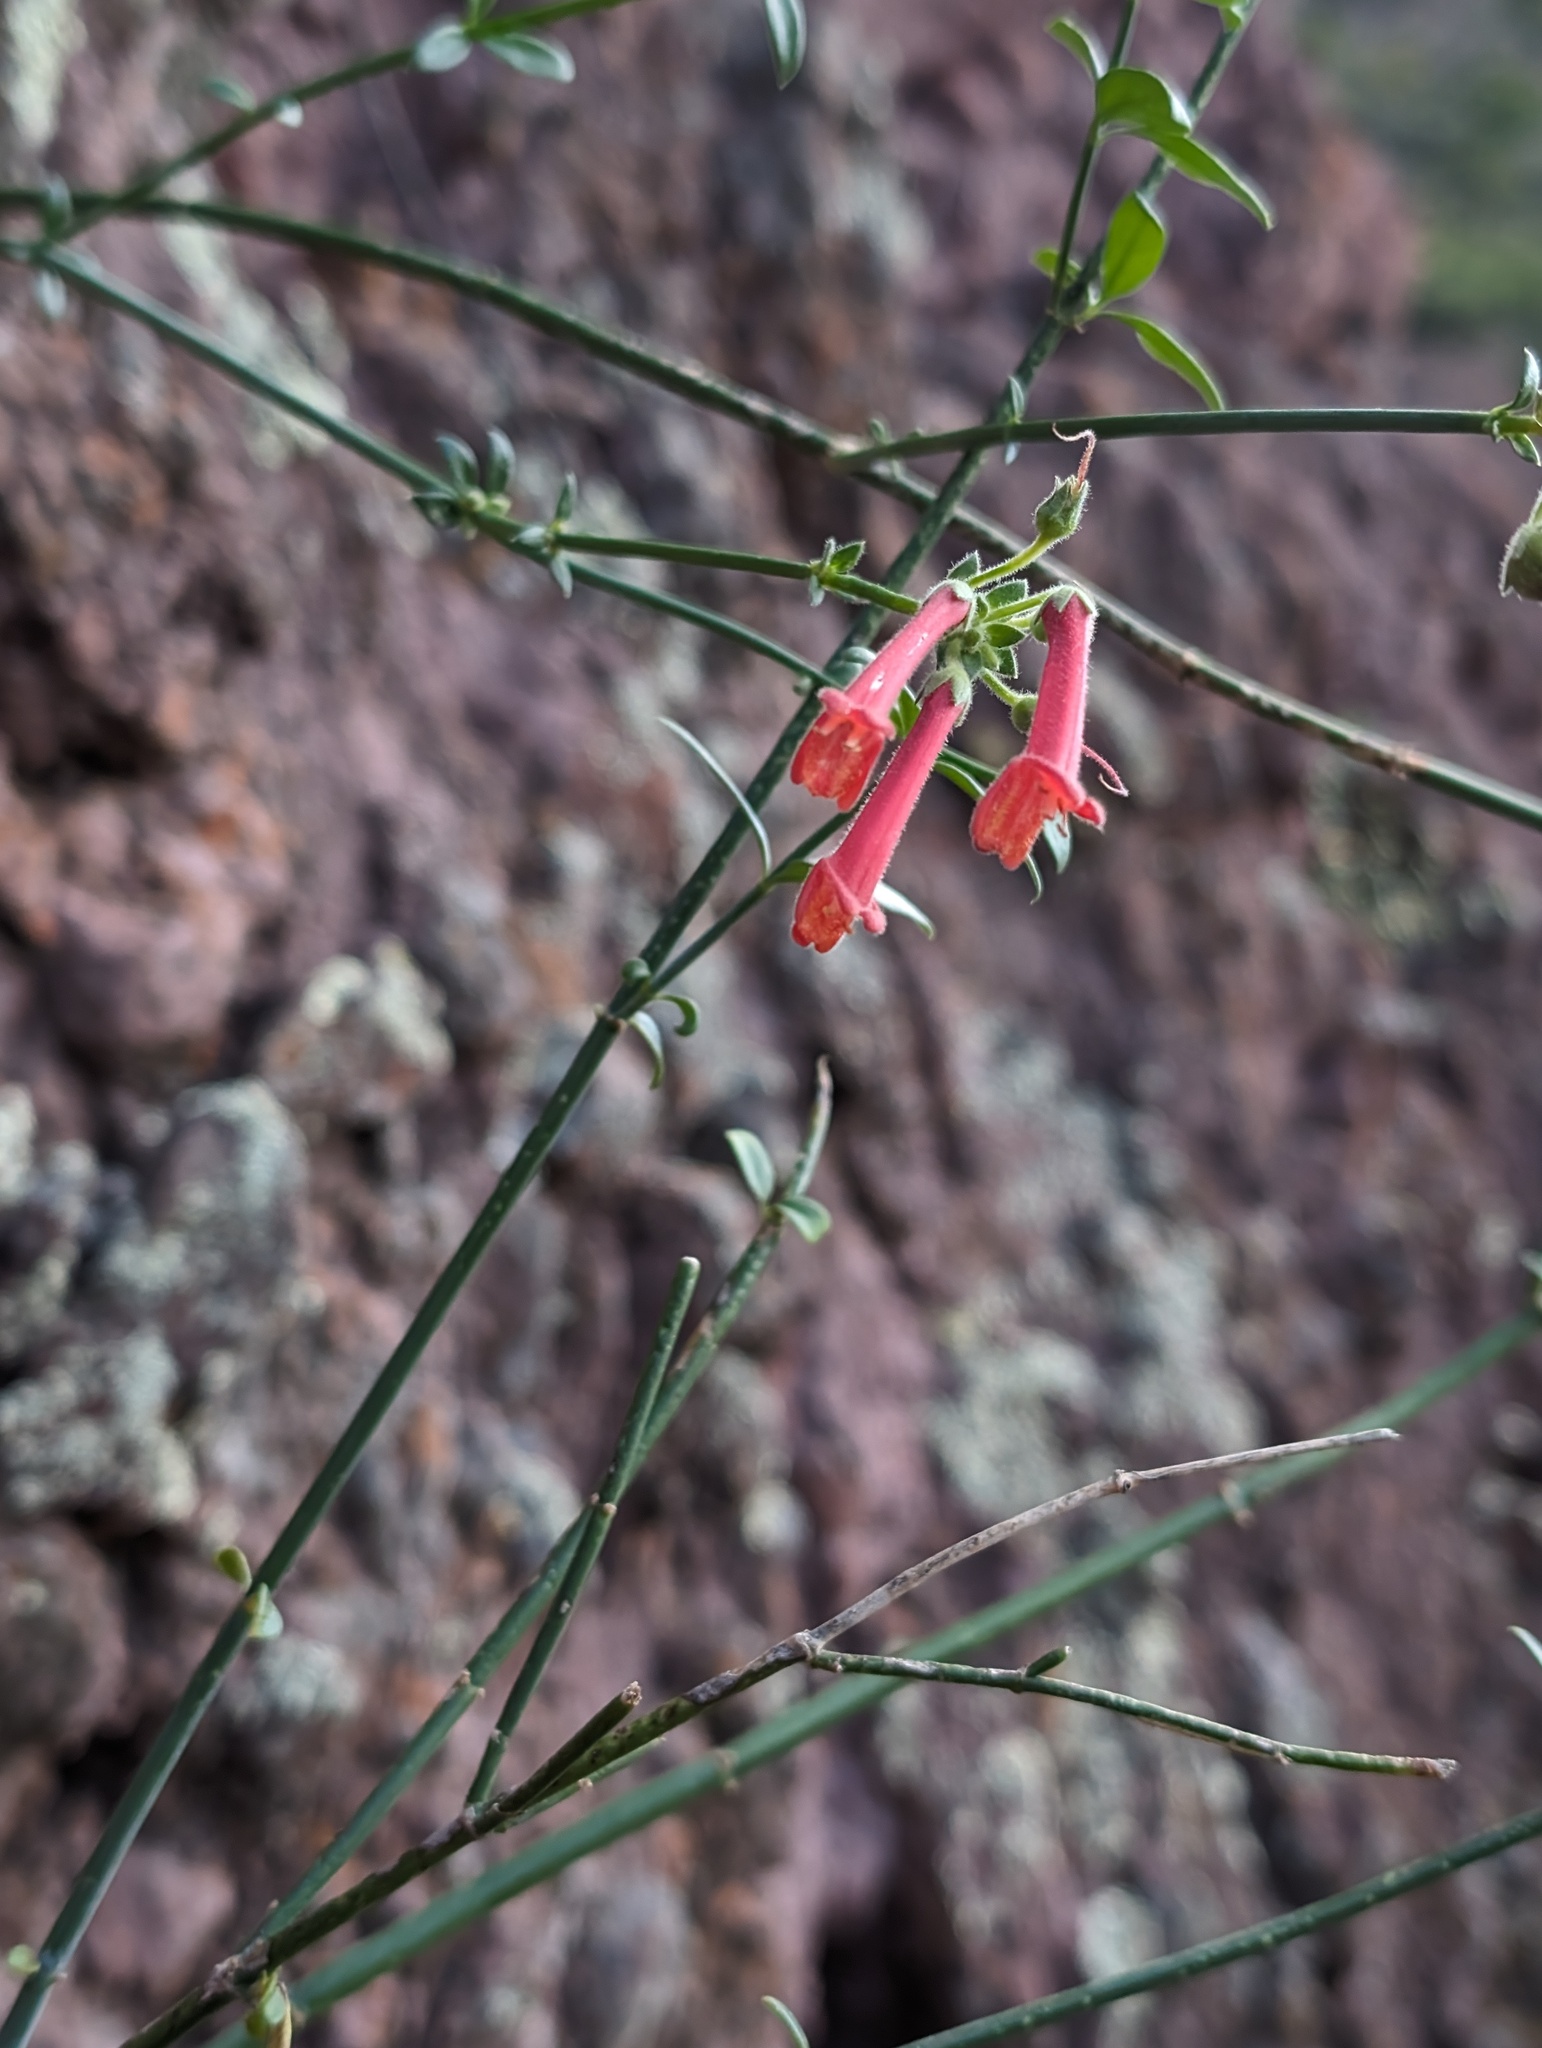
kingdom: Plantae
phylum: Tracheophyta
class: Magnoliopsida
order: Lamiales
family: Plantaginaceae
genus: Gambelia
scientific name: Gambelia juncea
